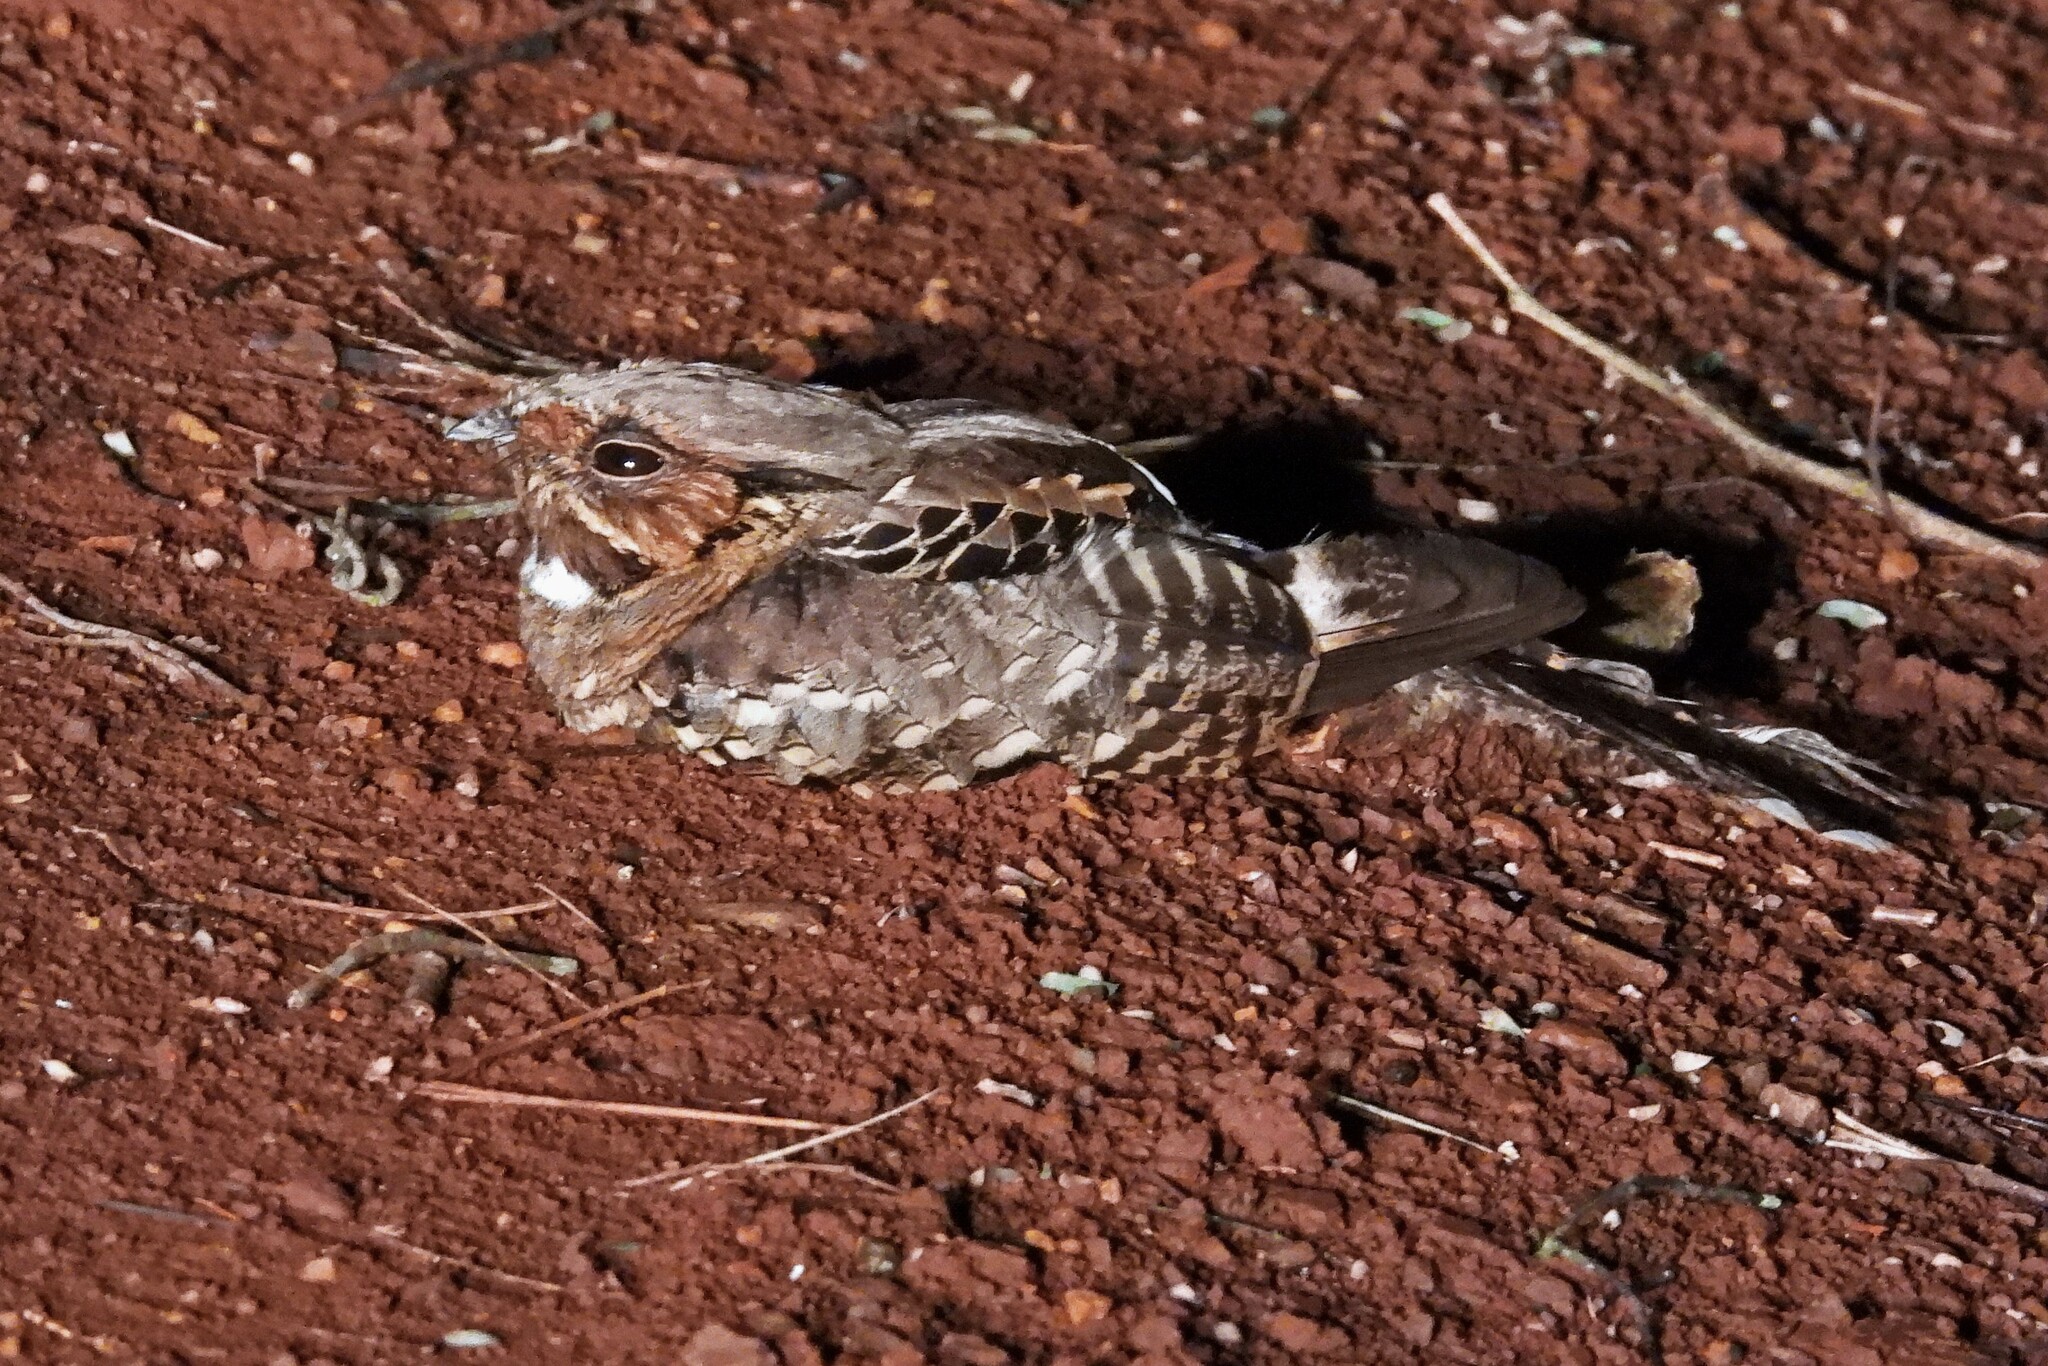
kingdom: Animalia
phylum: Chordata
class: Aves
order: Caprimulgiformes
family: Caprimulgidae
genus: Nyctidromus
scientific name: Nyctidromus albicollis
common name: Pauraque
